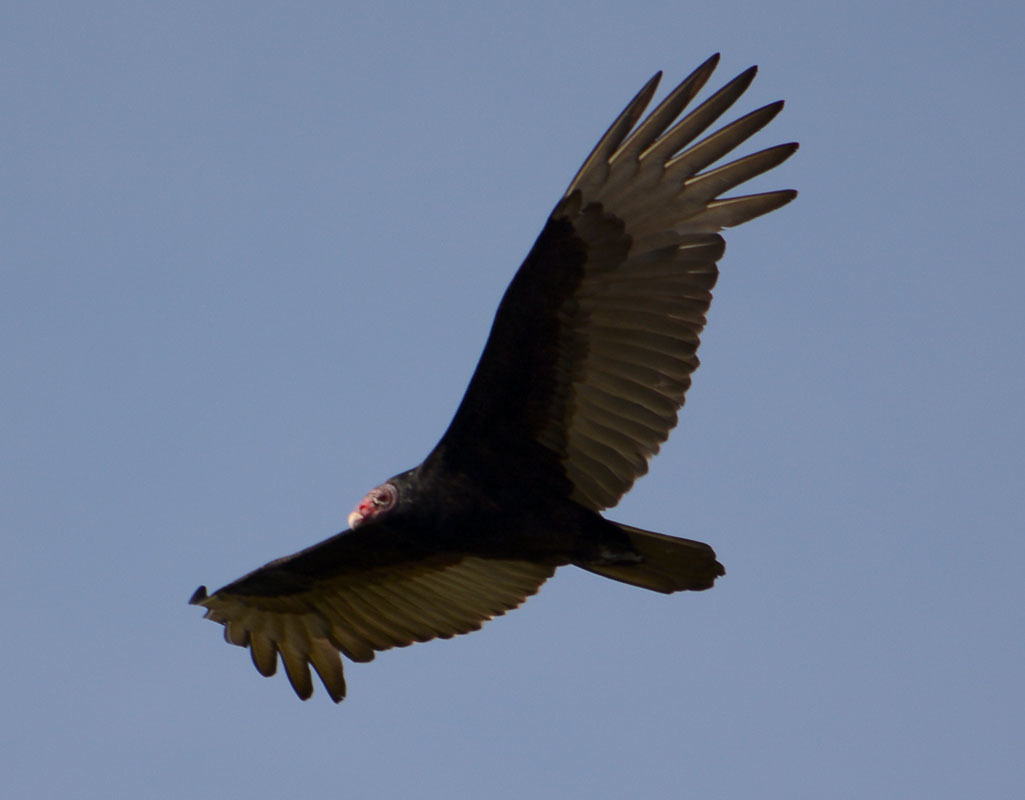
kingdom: Animalia
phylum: Chordata
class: Aves
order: Accipitriformes
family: Cathartidae
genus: Cathartes
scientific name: Cathartes aura
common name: Turkey vulture
